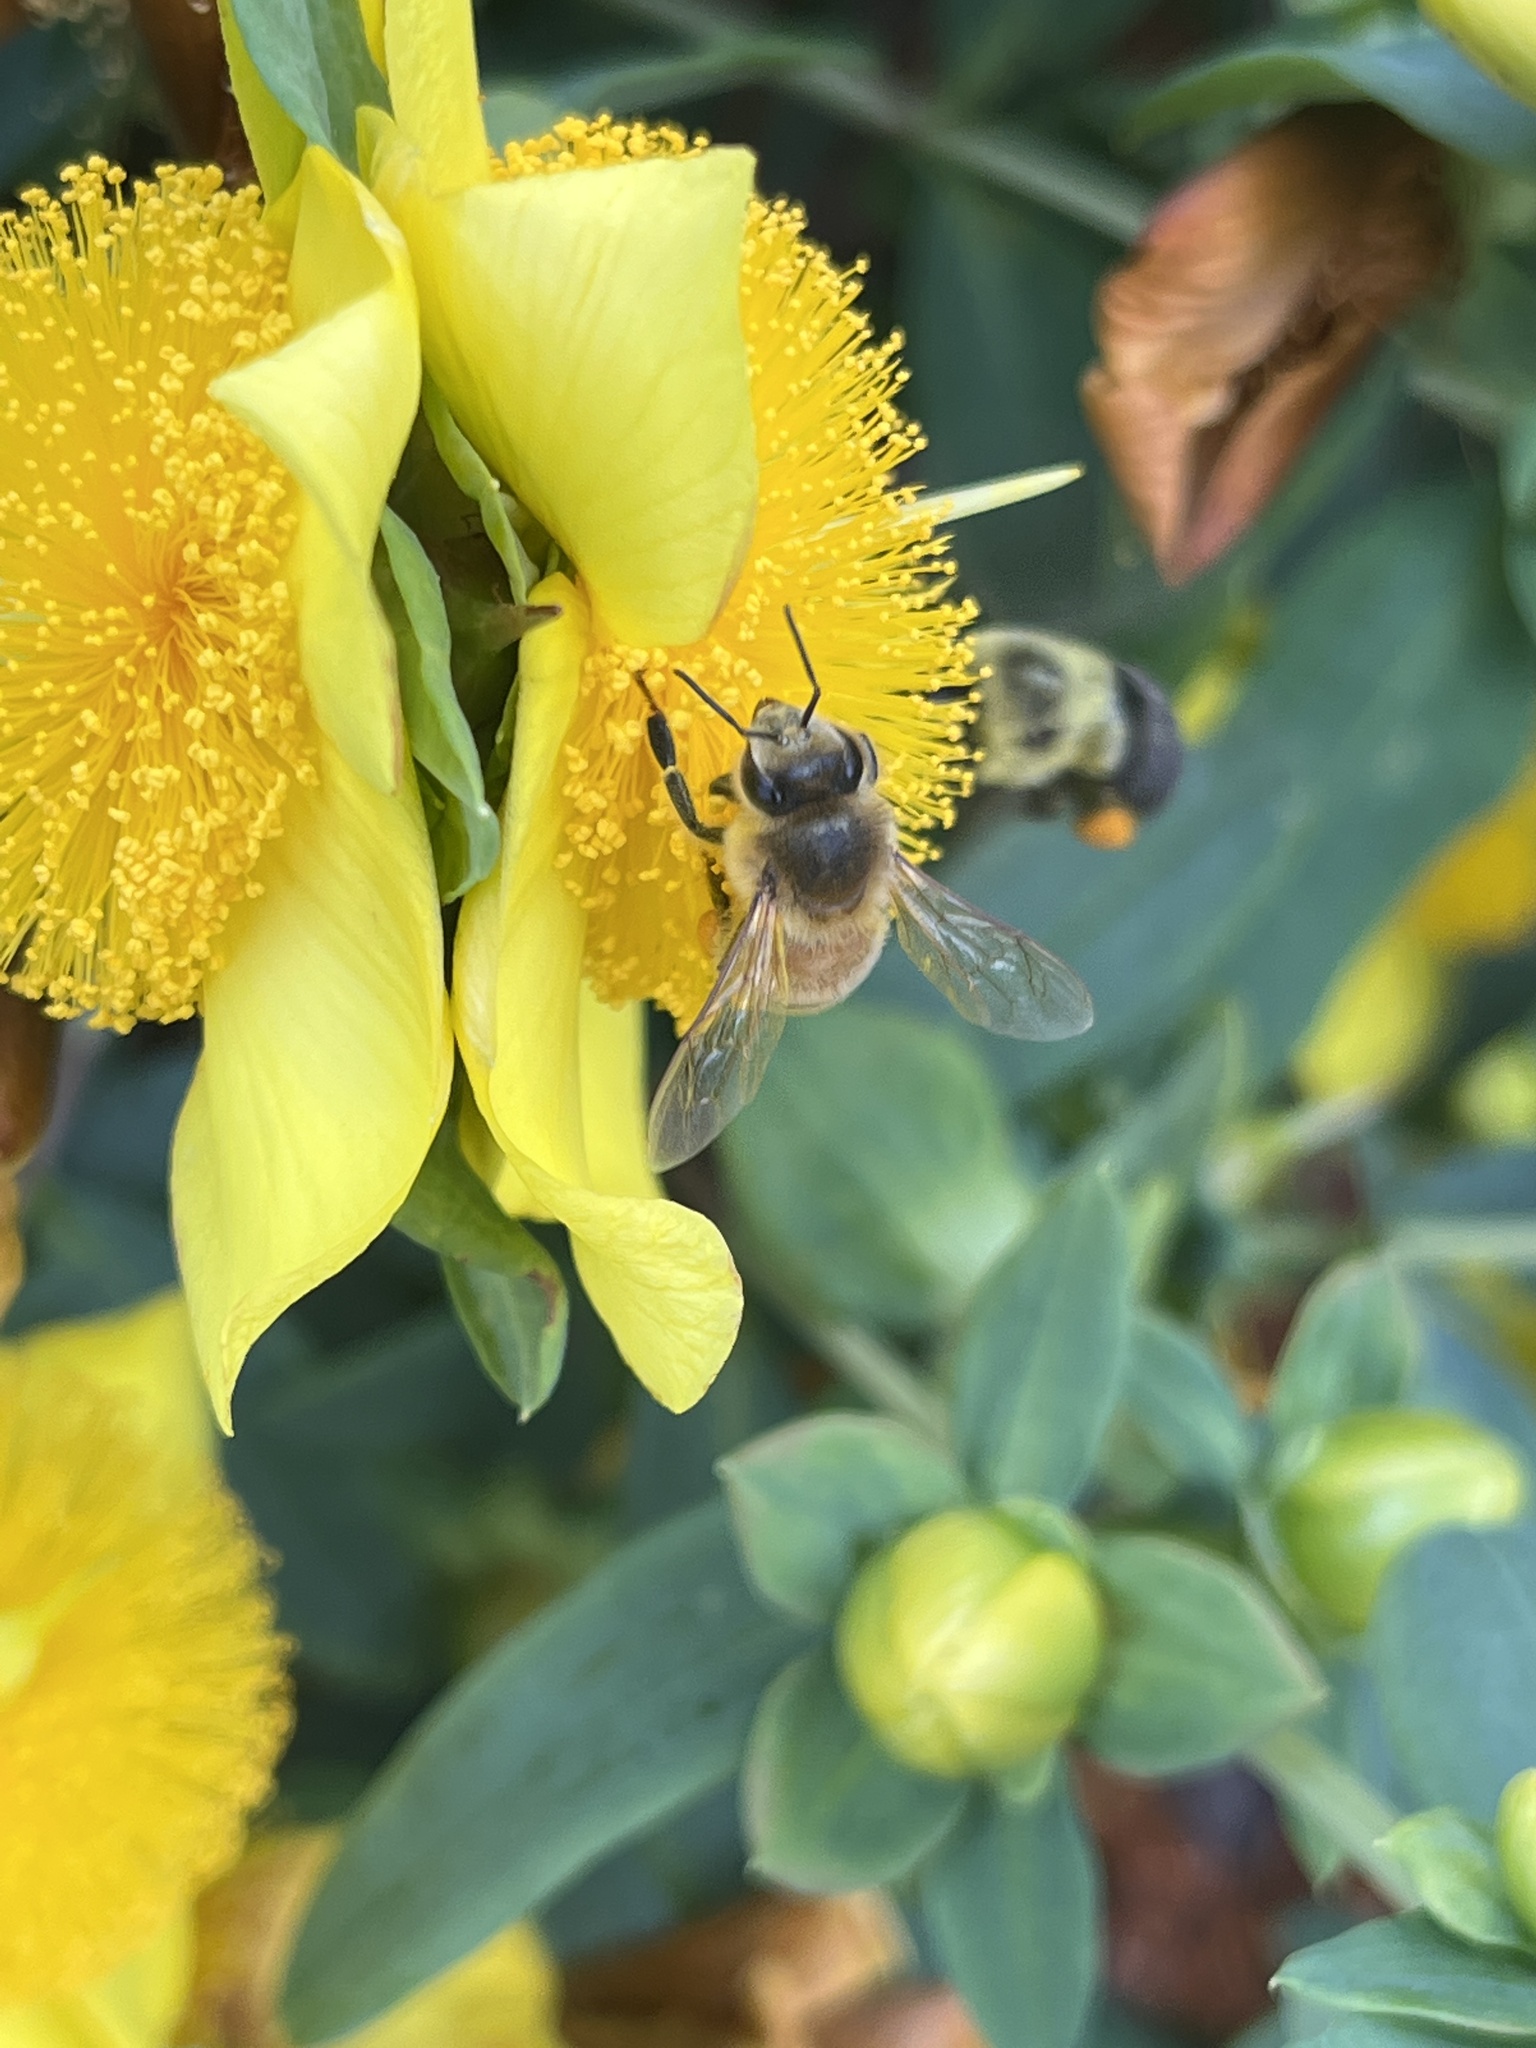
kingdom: Animalia
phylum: Arthropoda
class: Insecta
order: Hymenoptera
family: Apidae
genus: Apis
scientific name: Apis mellifera
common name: Honey bee
